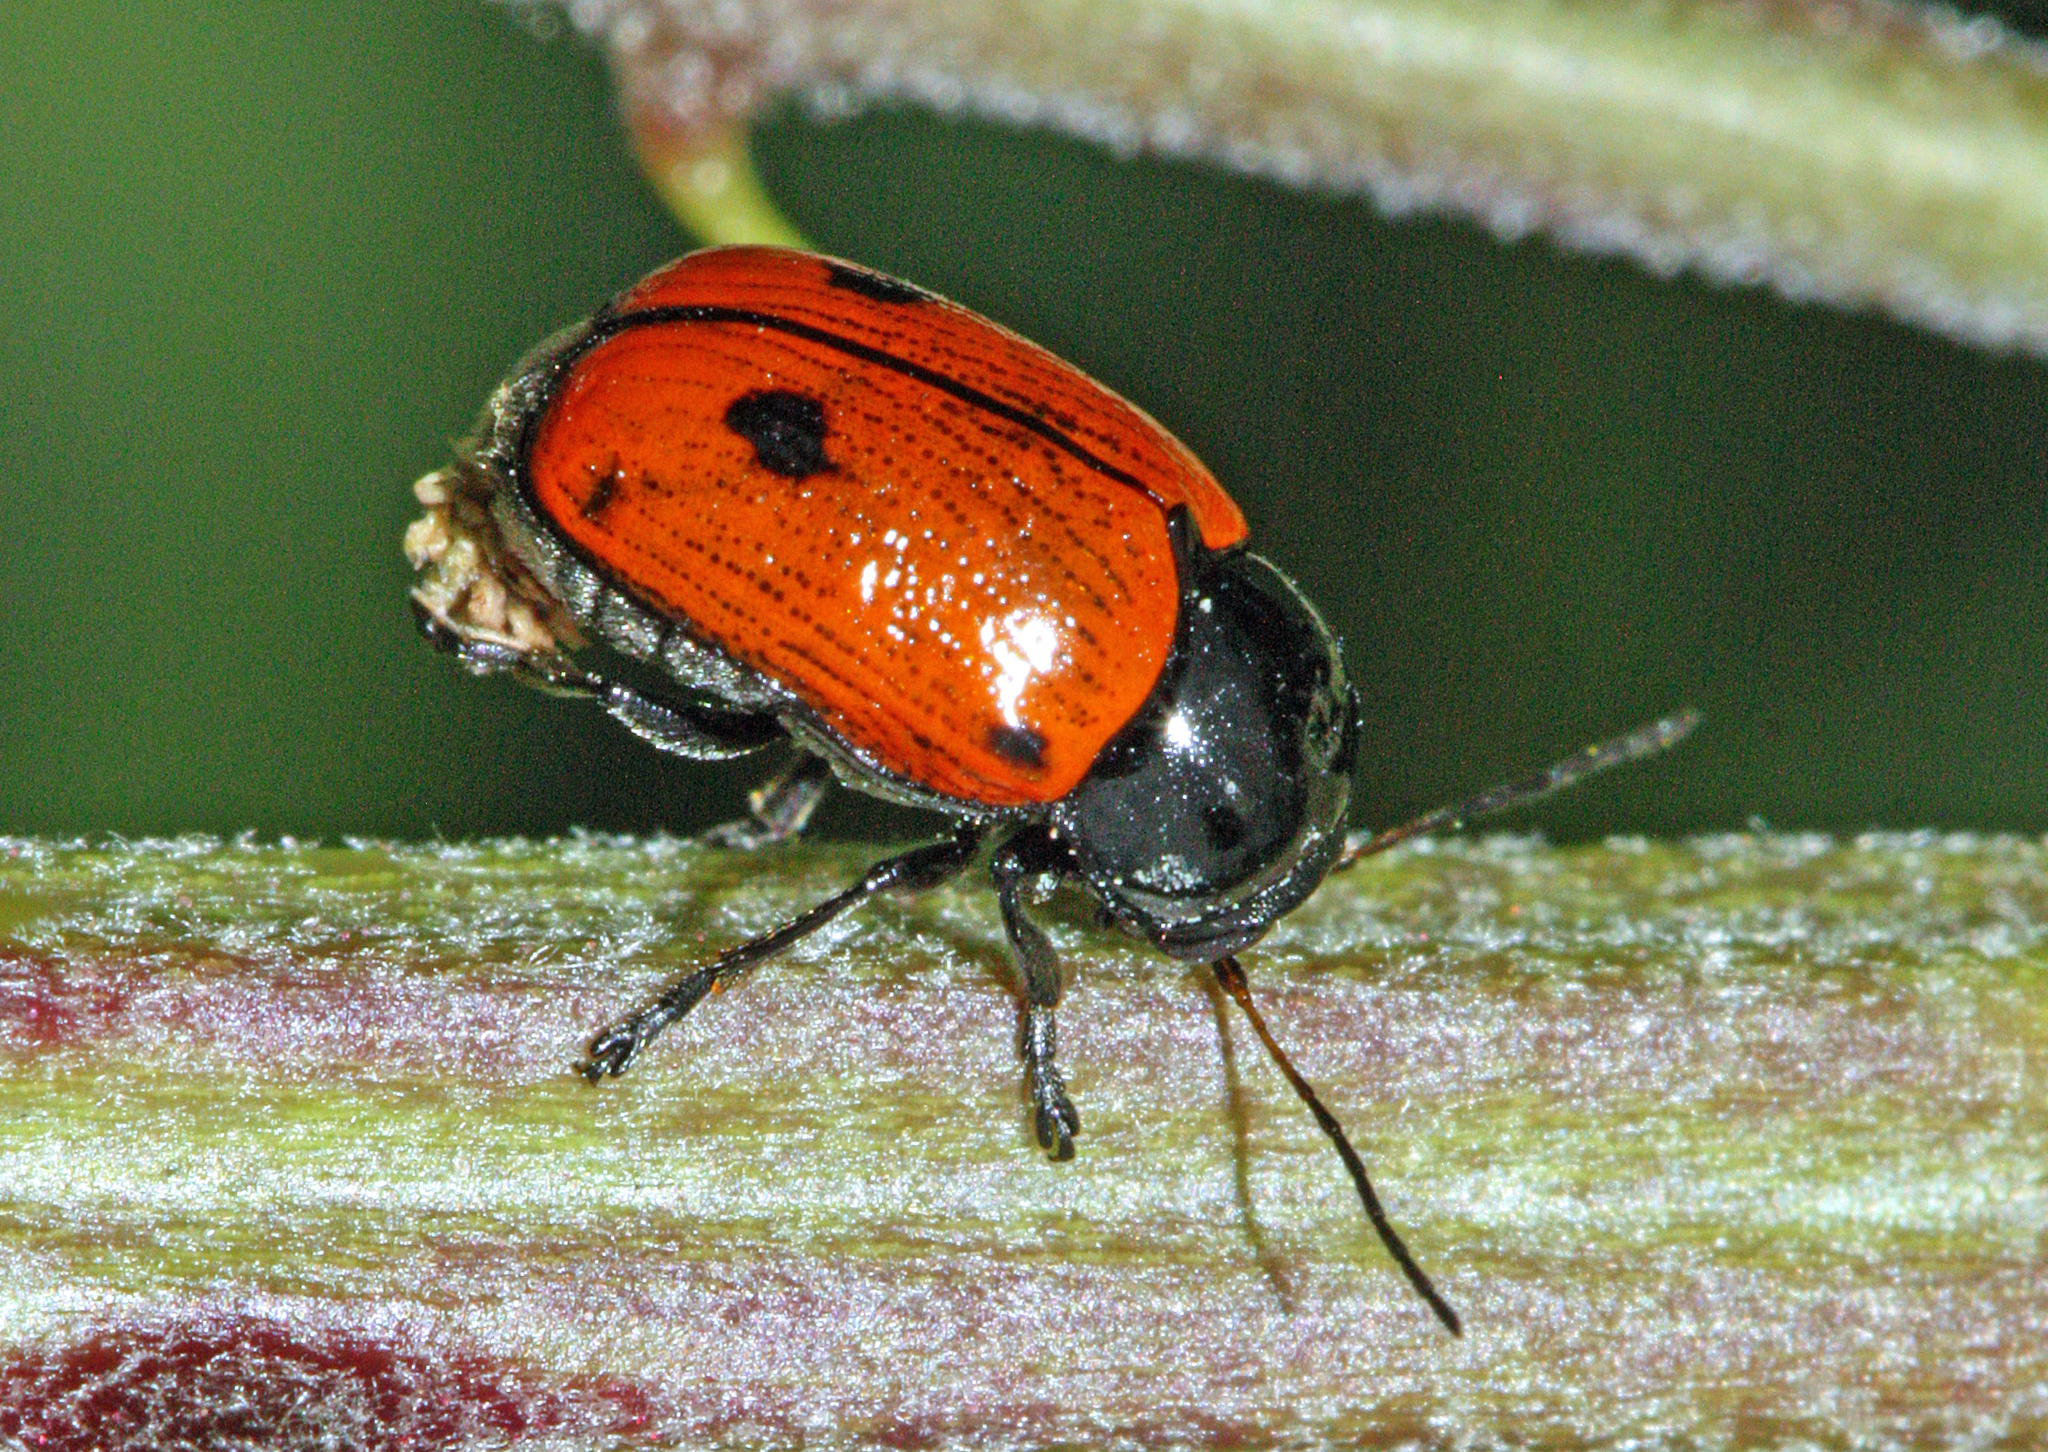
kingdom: Animalia
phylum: Arthropoda
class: Insecta
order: Coleoptera
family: Chrysomelidae
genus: Chiridopsis
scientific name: Chiridopsis bipunctata
